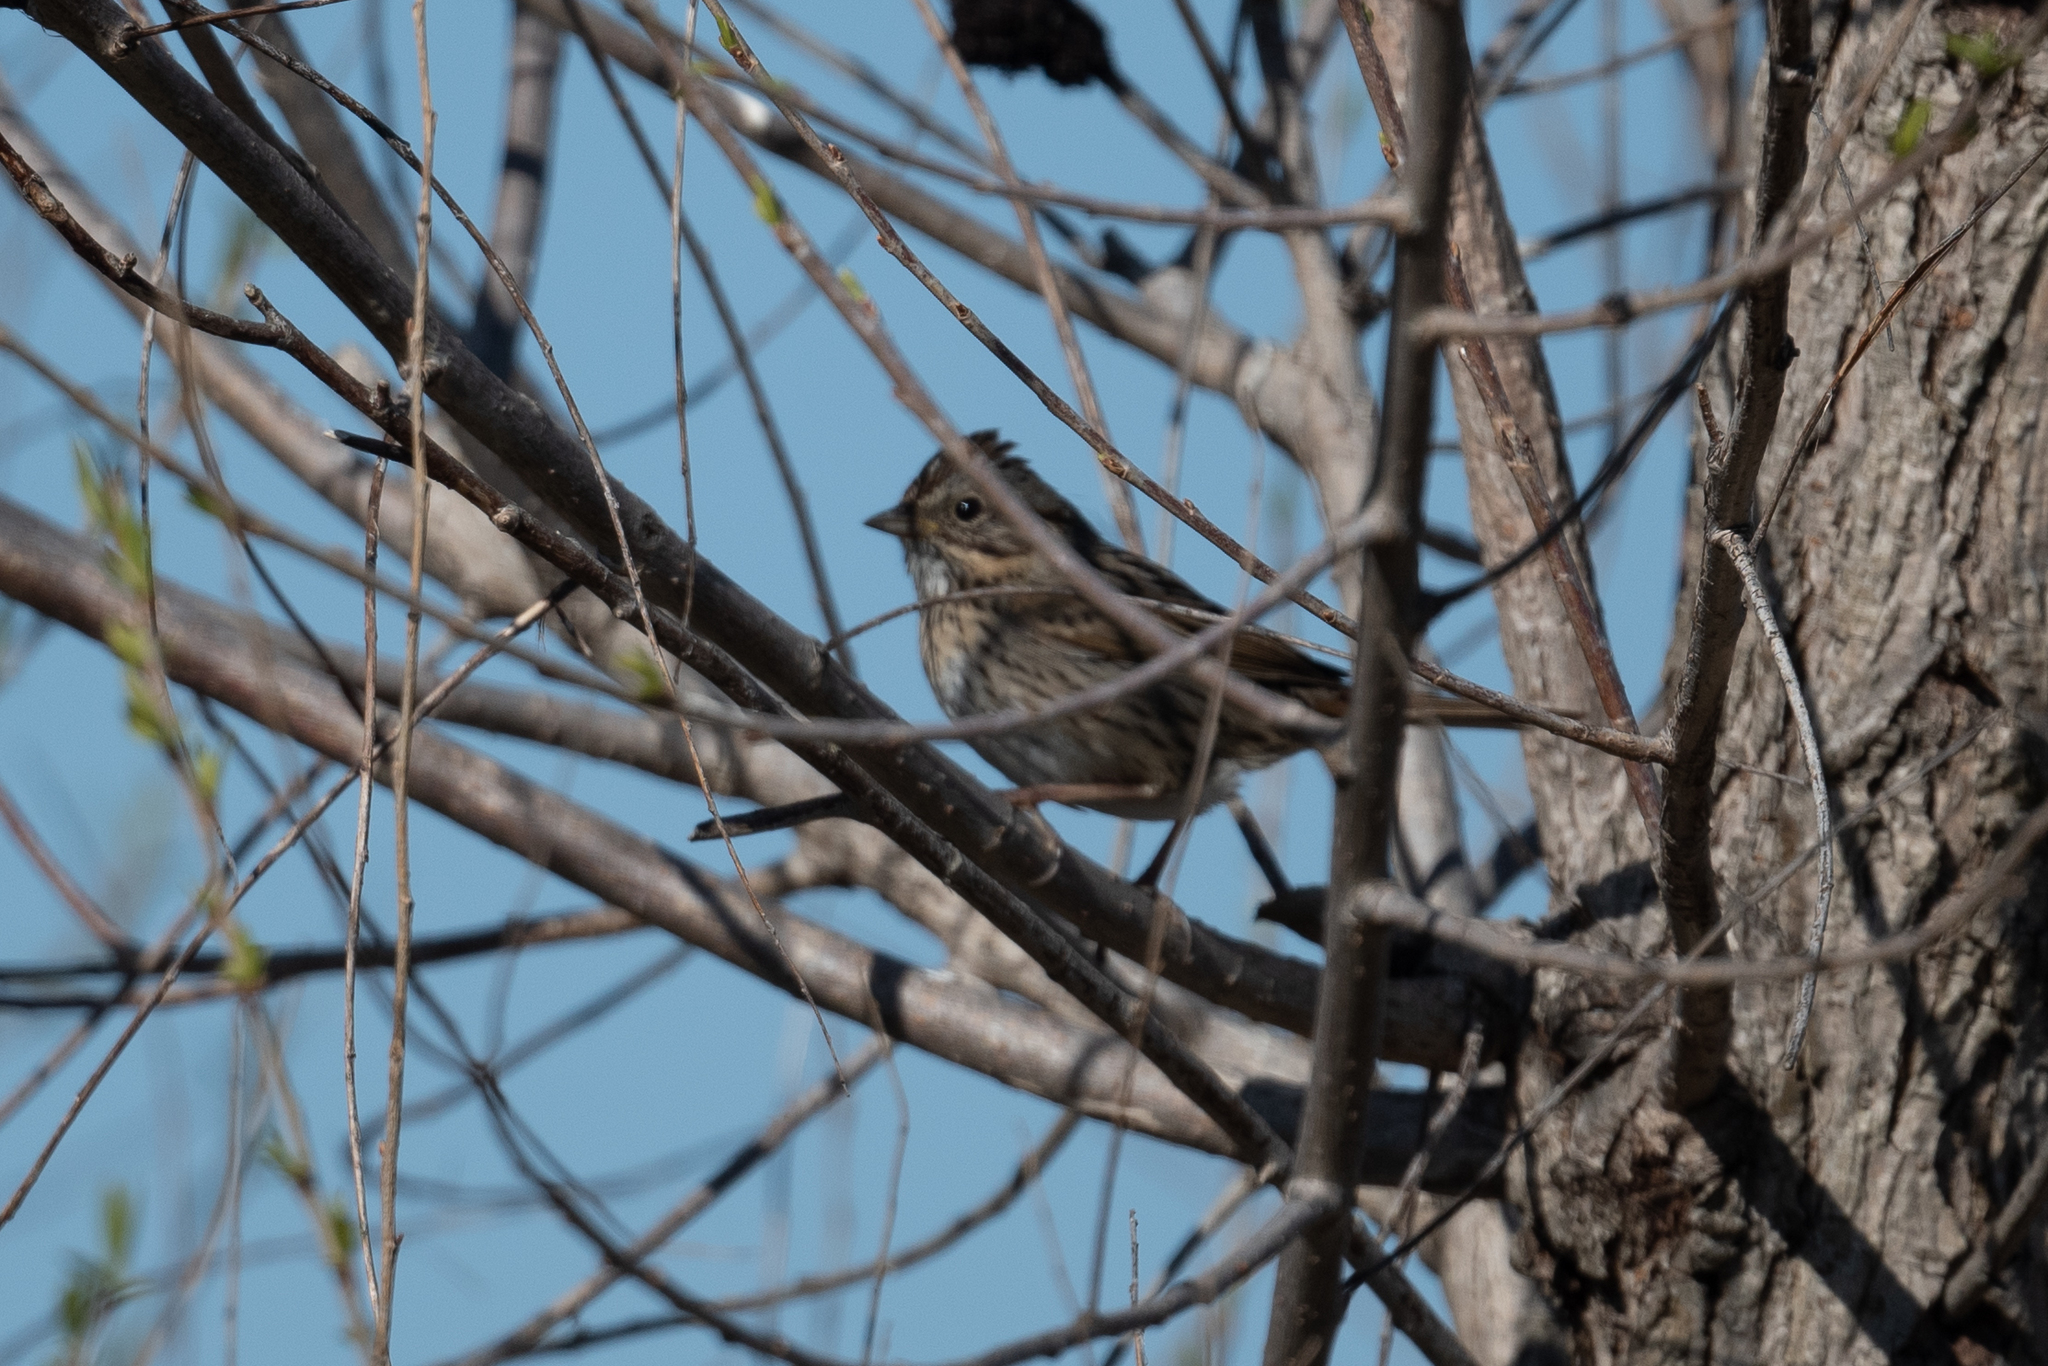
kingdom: Animalia
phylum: Chordata
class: Aves
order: Passeriformes
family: Passerellidae
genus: Melospiza
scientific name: Melospiza lincolnii
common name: Lincoln's sparrow
